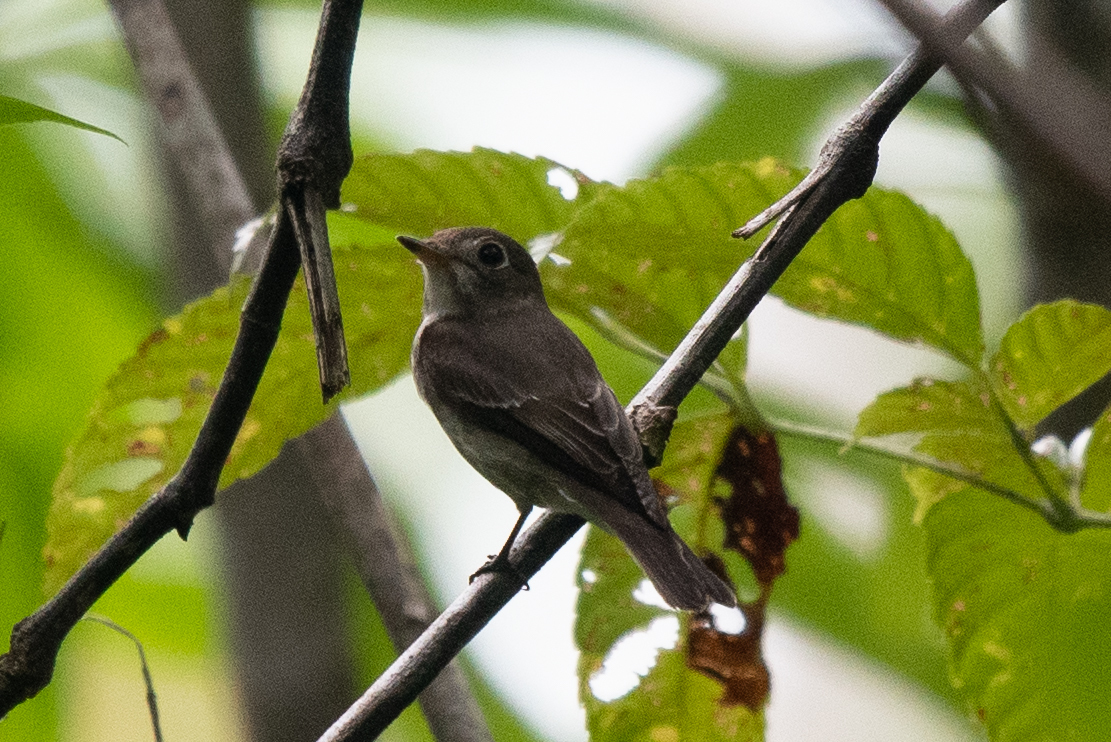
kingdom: Animalia
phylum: Chordata
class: Aves
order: Passeriformes
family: Muscicapidae
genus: Muscicapa
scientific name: Muscicapa latirostris
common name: Asian brown flycatcher
